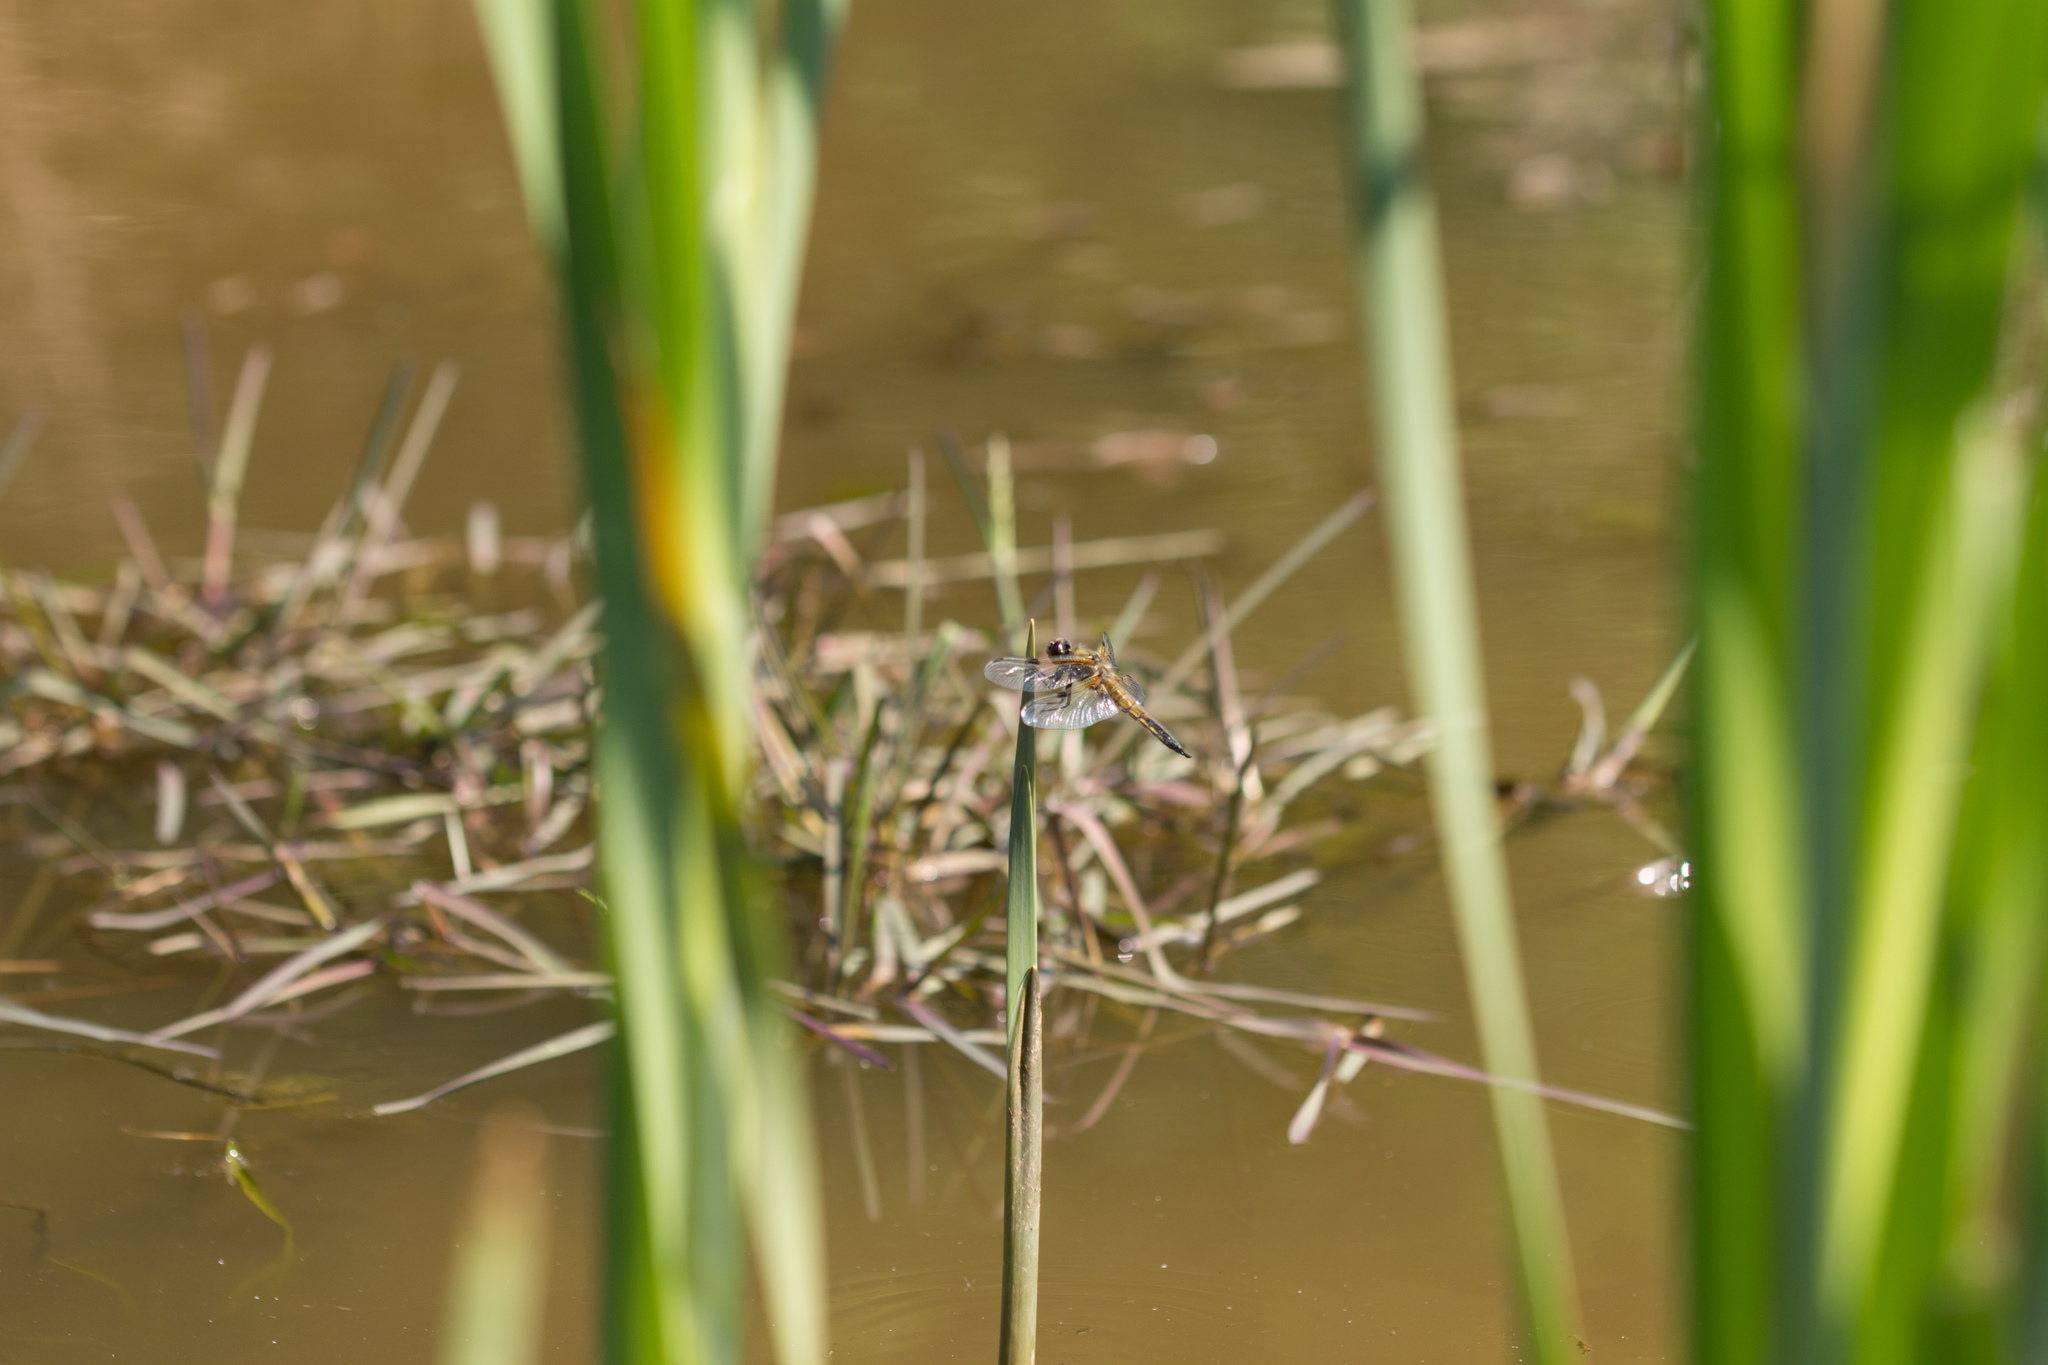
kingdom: Animalia
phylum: Arthropoda
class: Insecta
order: Odonata
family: Libellulidae
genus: Libellula
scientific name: Libellula quadrimaculata
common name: Four-spotted chaser
